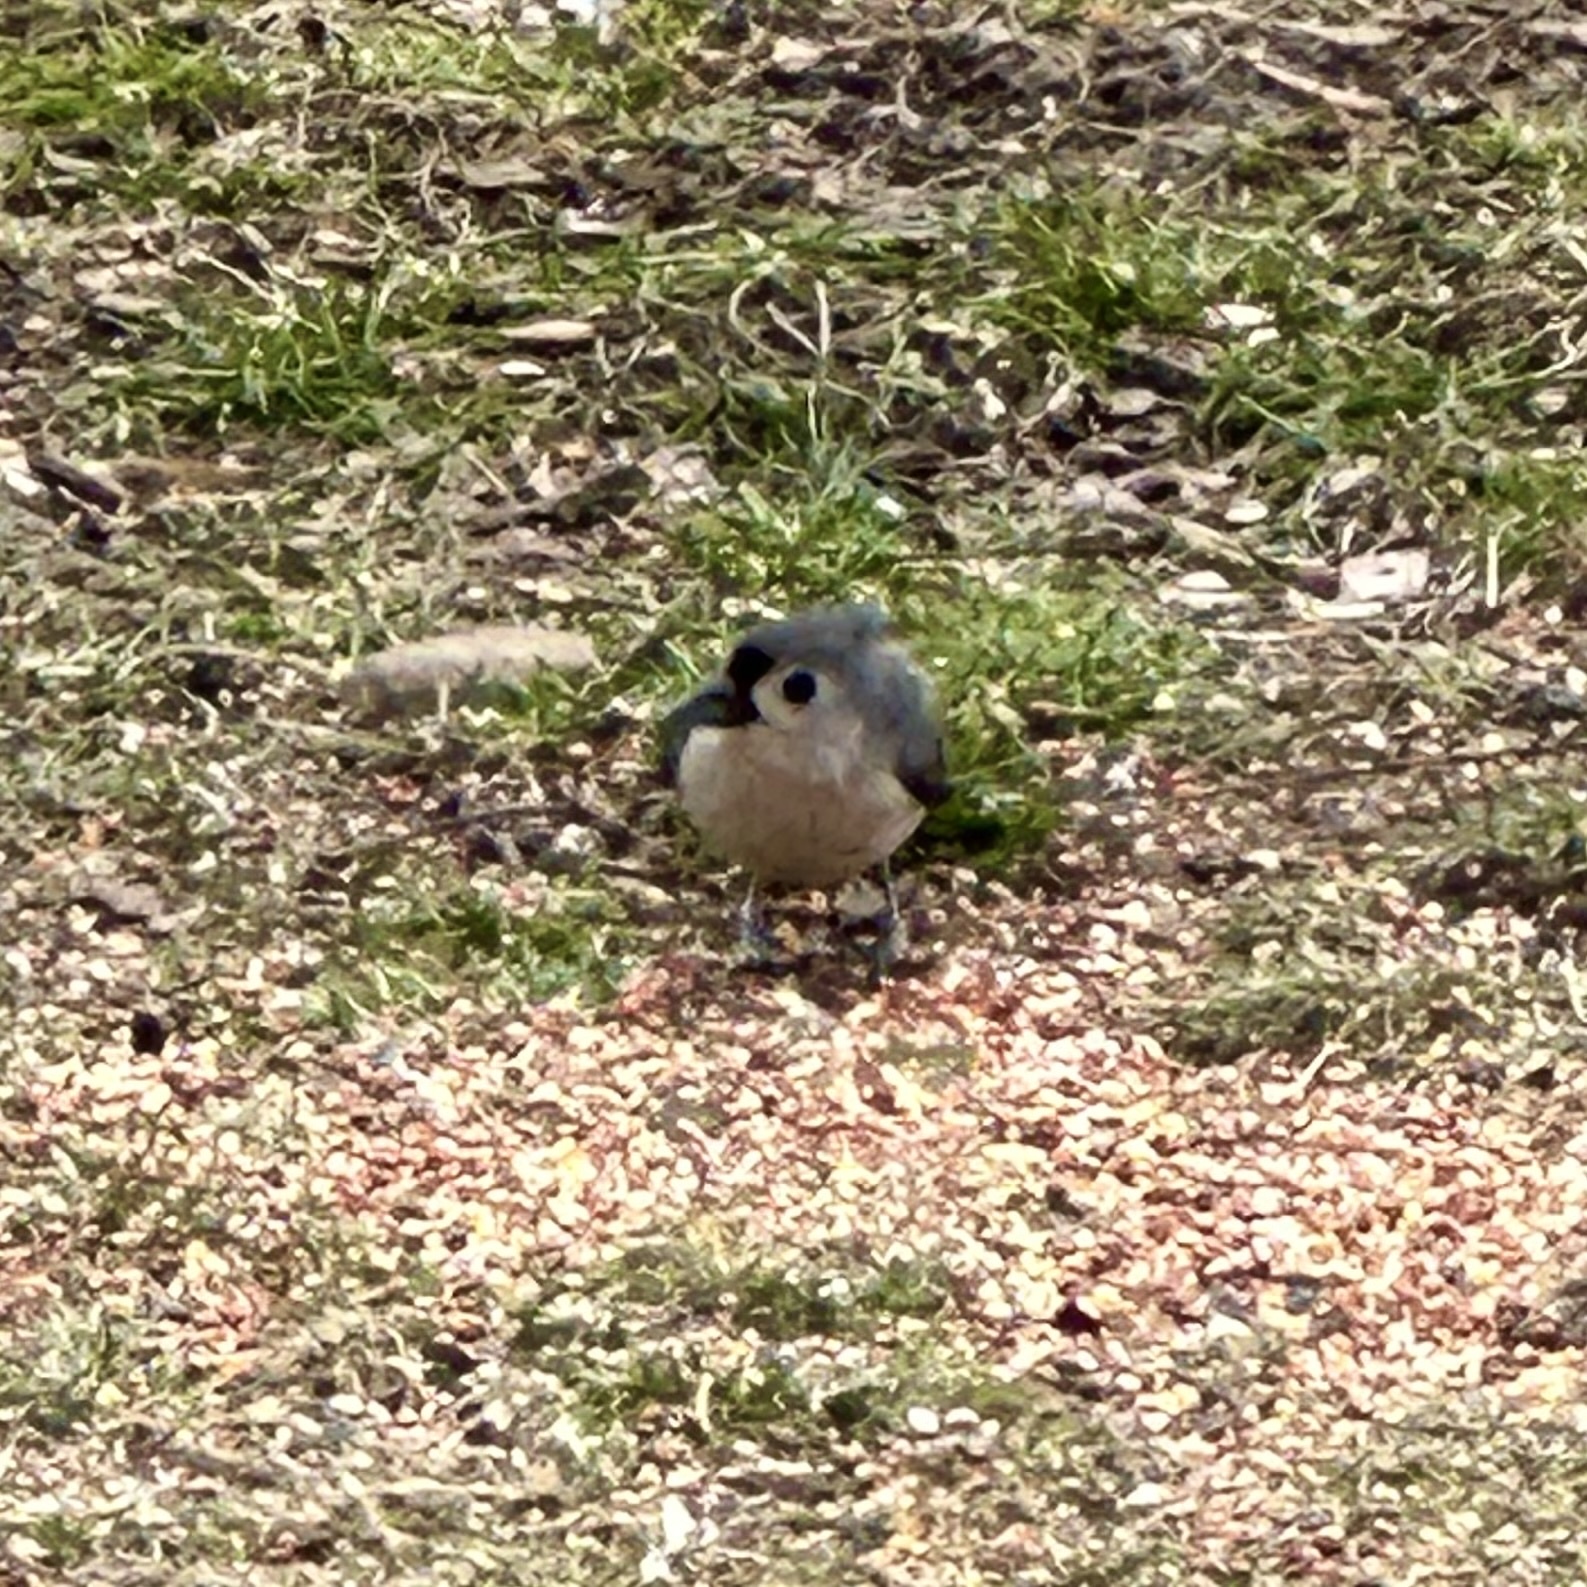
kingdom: Animalia
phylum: Chordata
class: Aves
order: Passeriformes
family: Paridae
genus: Baeolophus
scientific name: Baeolophus bicolor
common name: Tufted titmouse
